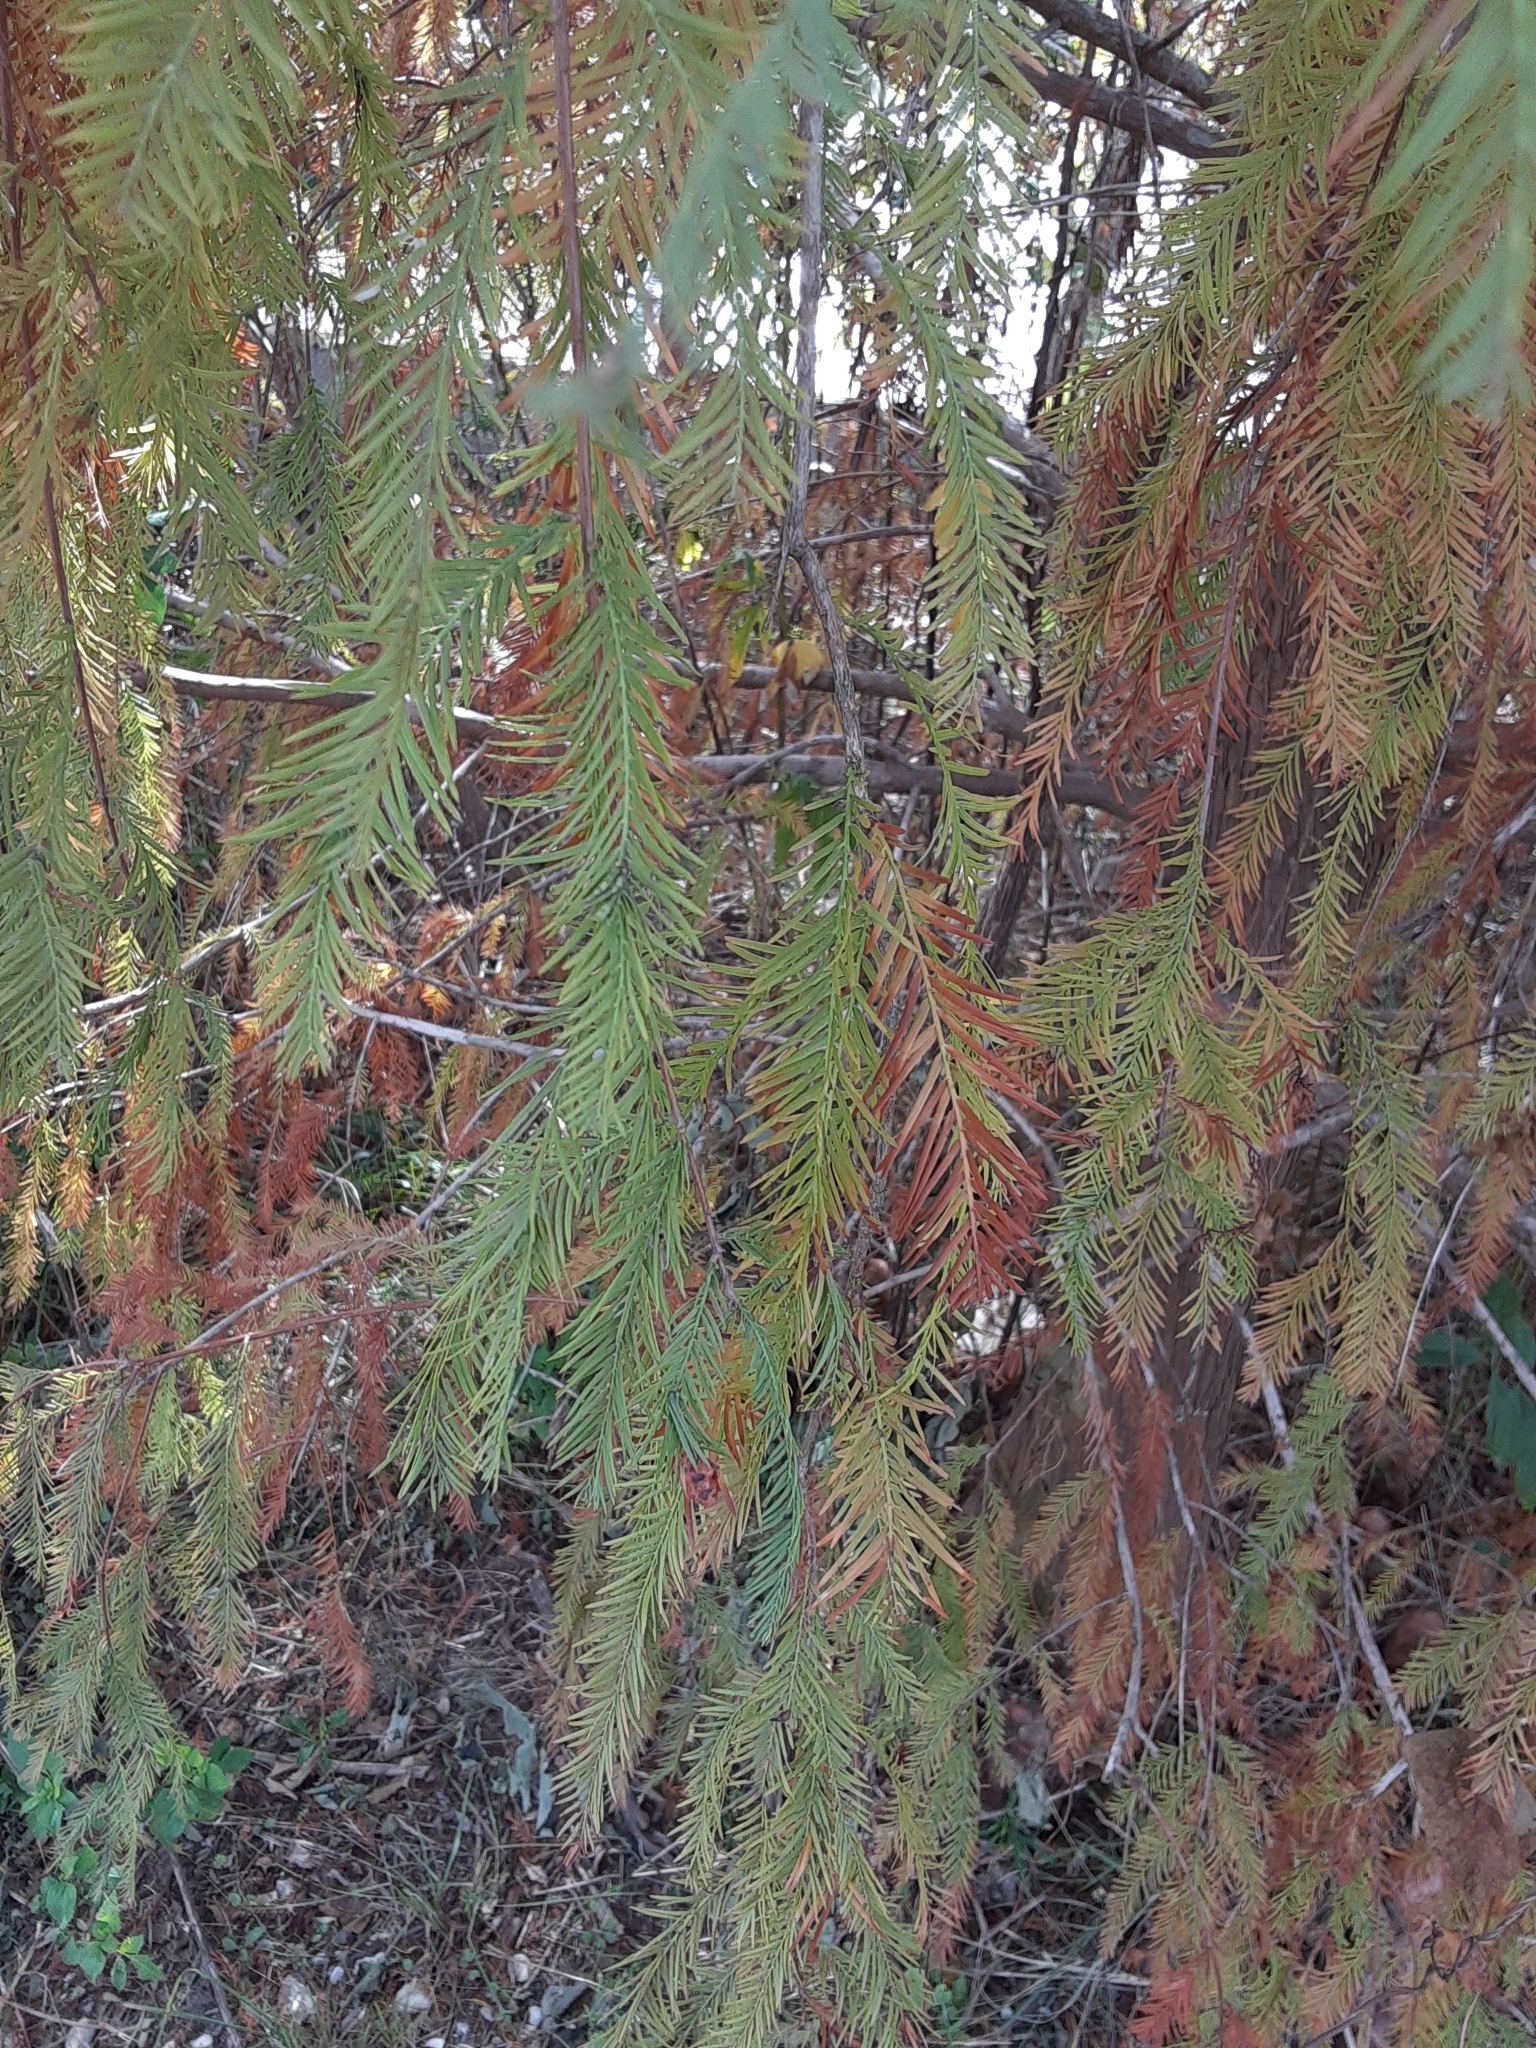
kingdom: Plantae
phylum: Tracheophyta
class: Pinopsida
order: Pinales
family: Cupressaceae
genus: Taxodium
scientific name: Taxodium distichum
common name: Bald cypress
